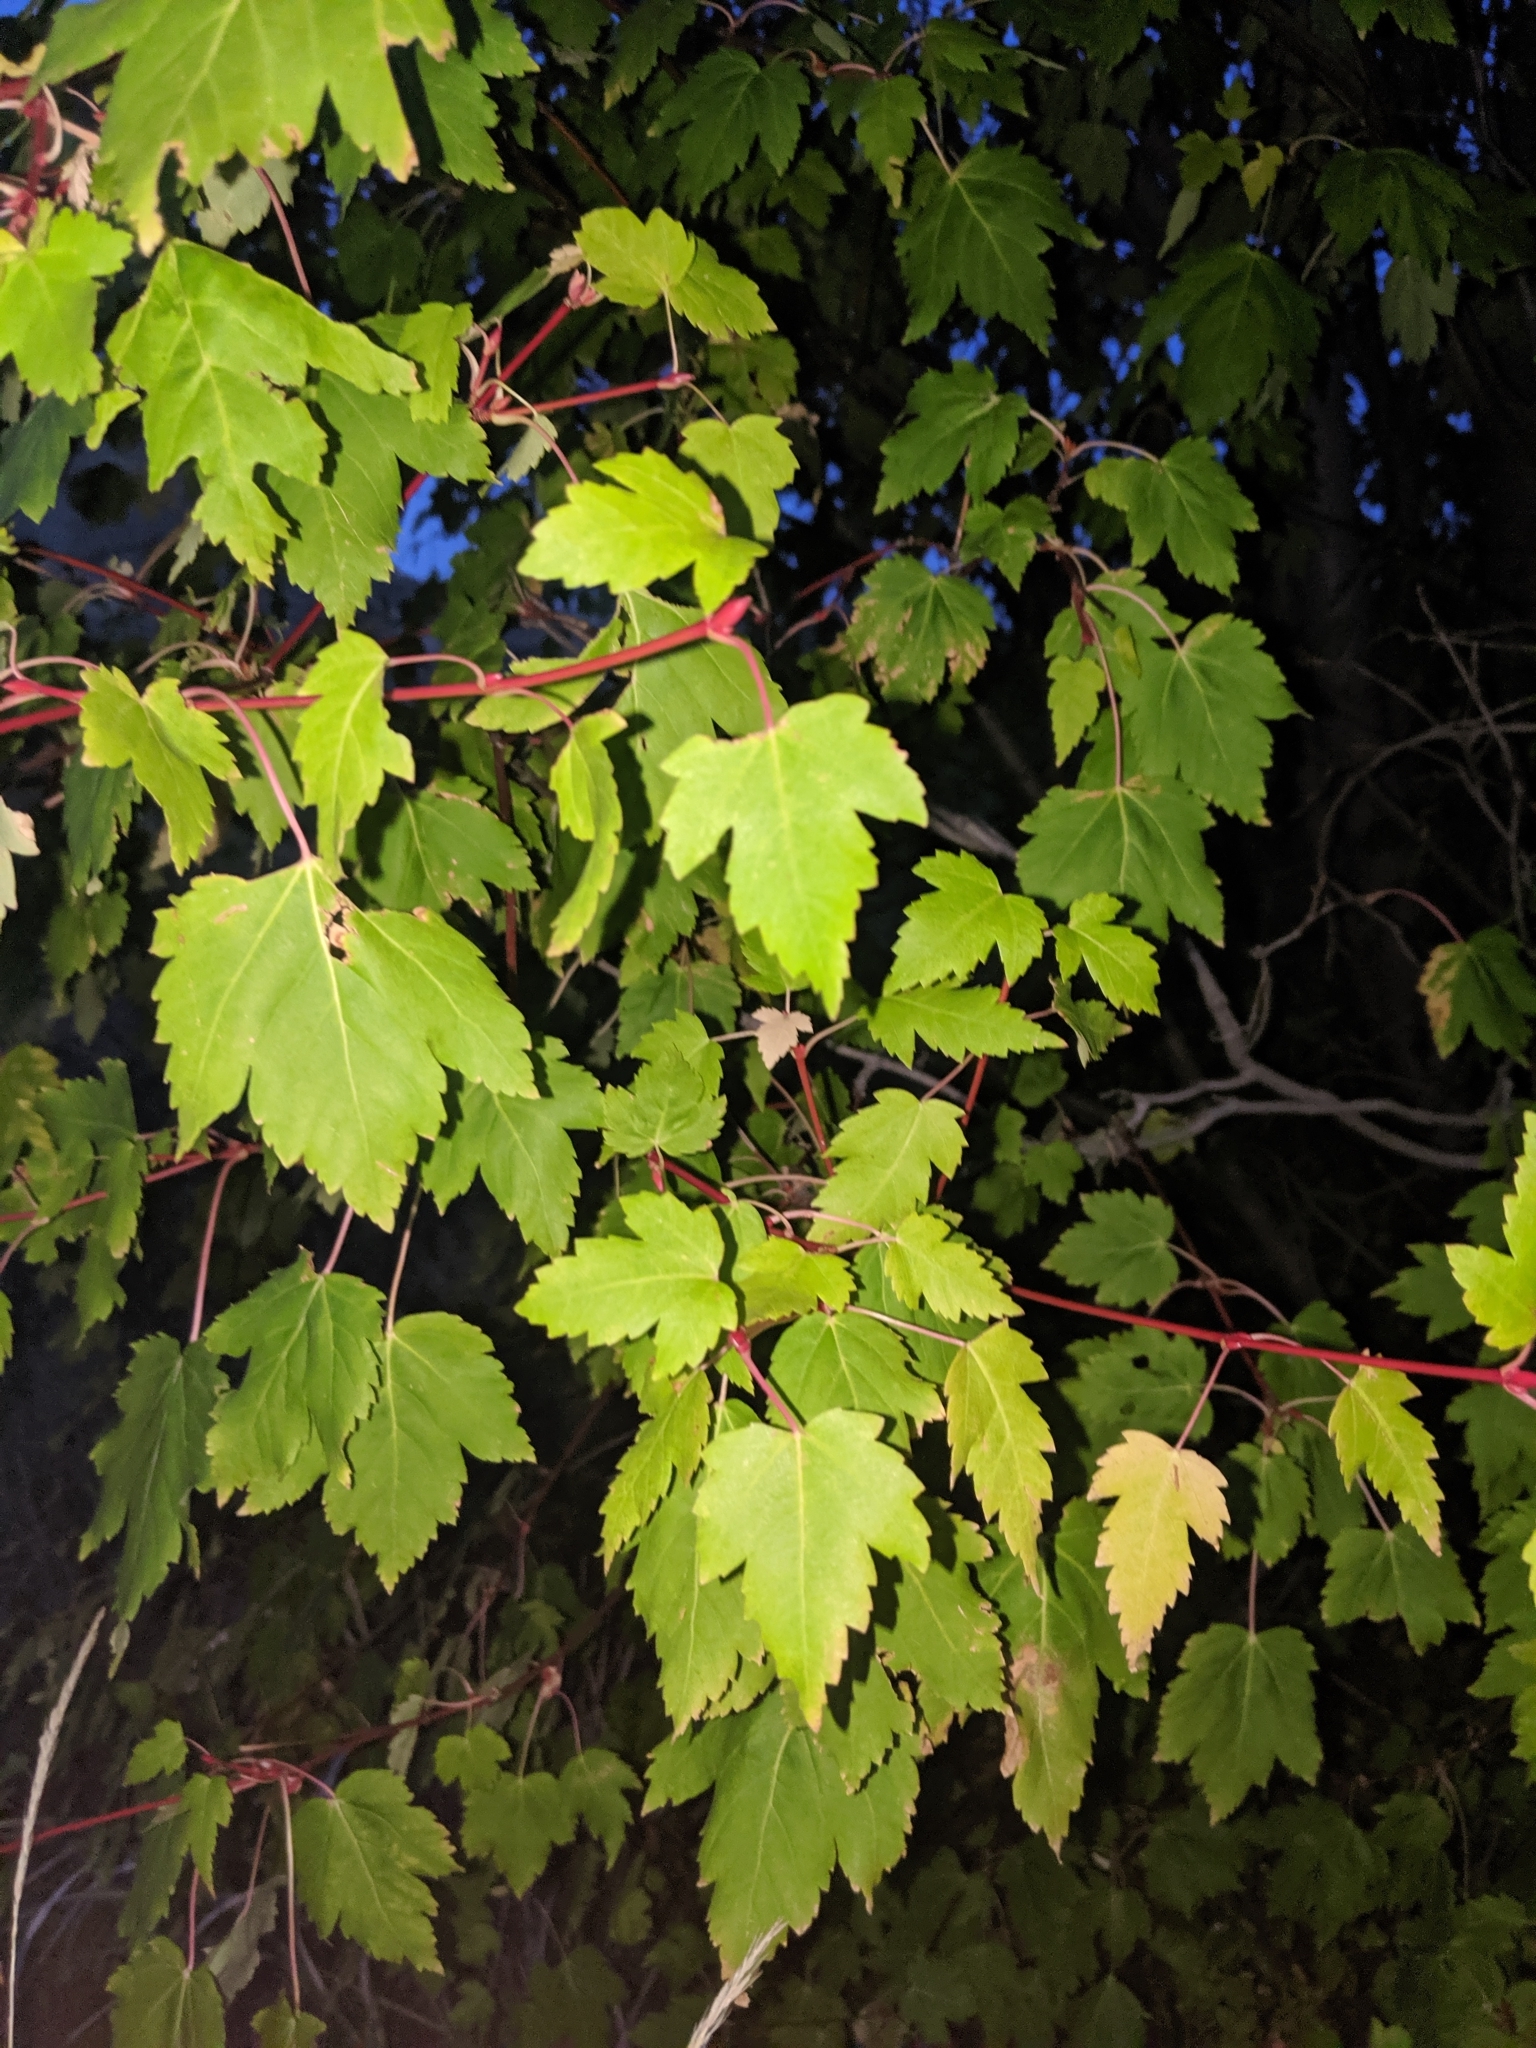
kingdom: Plantae
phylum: Tracheophyta
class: Magnoliopsida
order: Sapindales
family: Sapindaceae
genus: Acer
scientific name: Acer glabrum
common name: Rocky mountain maple
